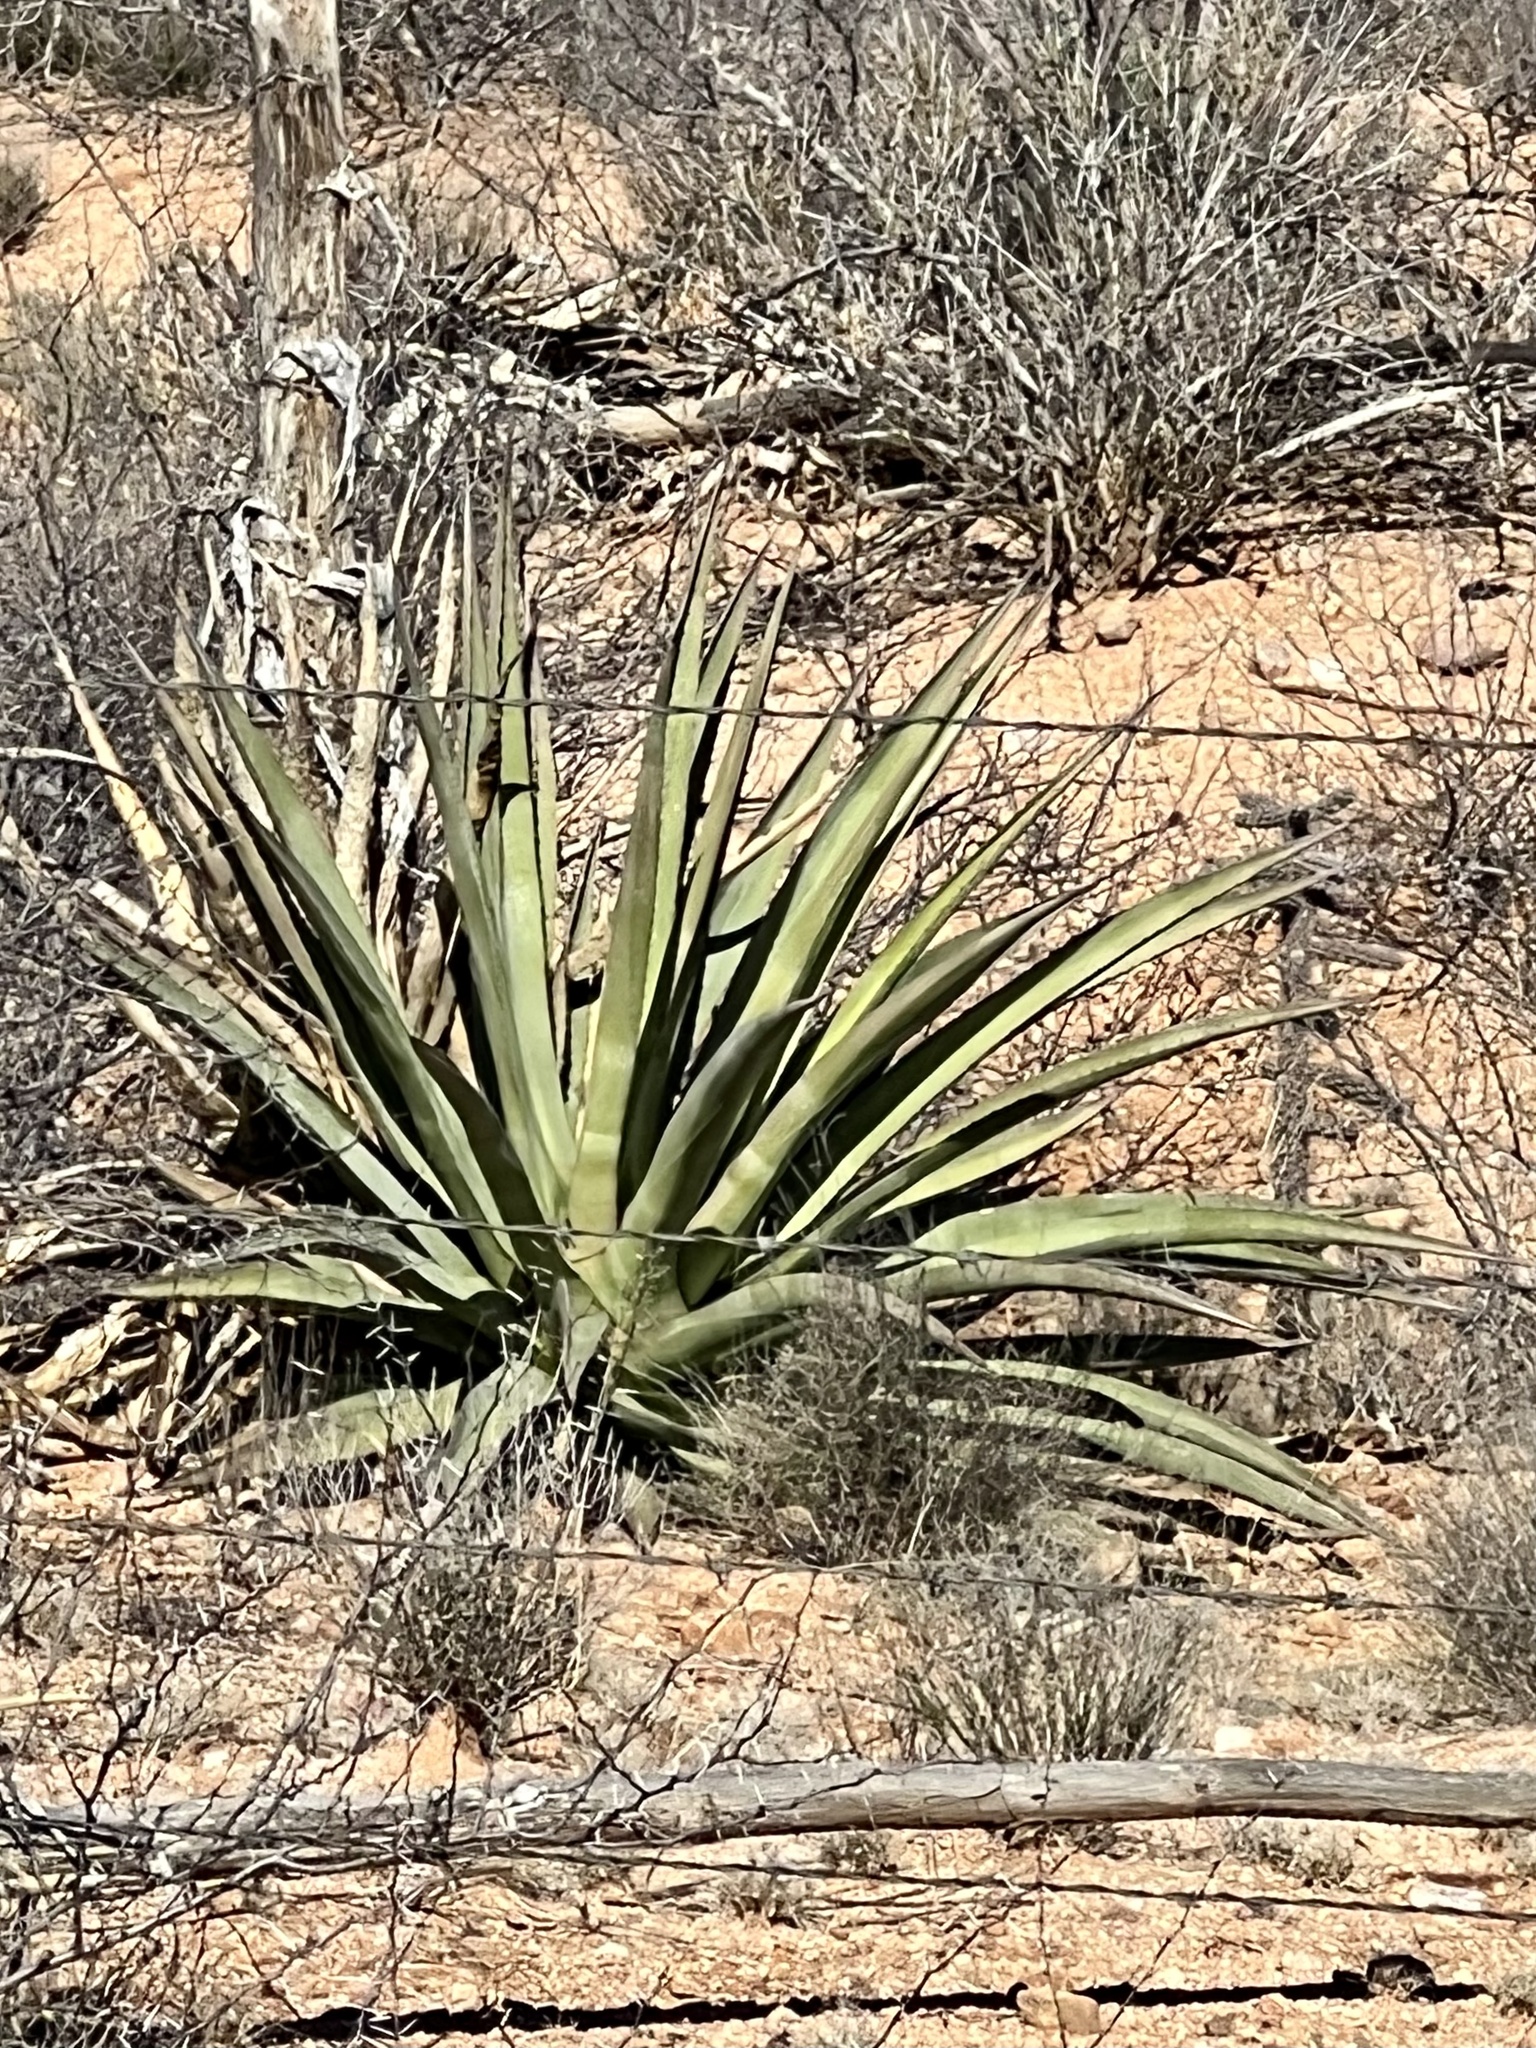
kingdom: Plantae
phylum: Tracheophyta
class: Liliopsida
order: Asparagales
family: Asparagaceae
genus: Agave
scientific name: Agave palmeri
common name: Palmer agave
